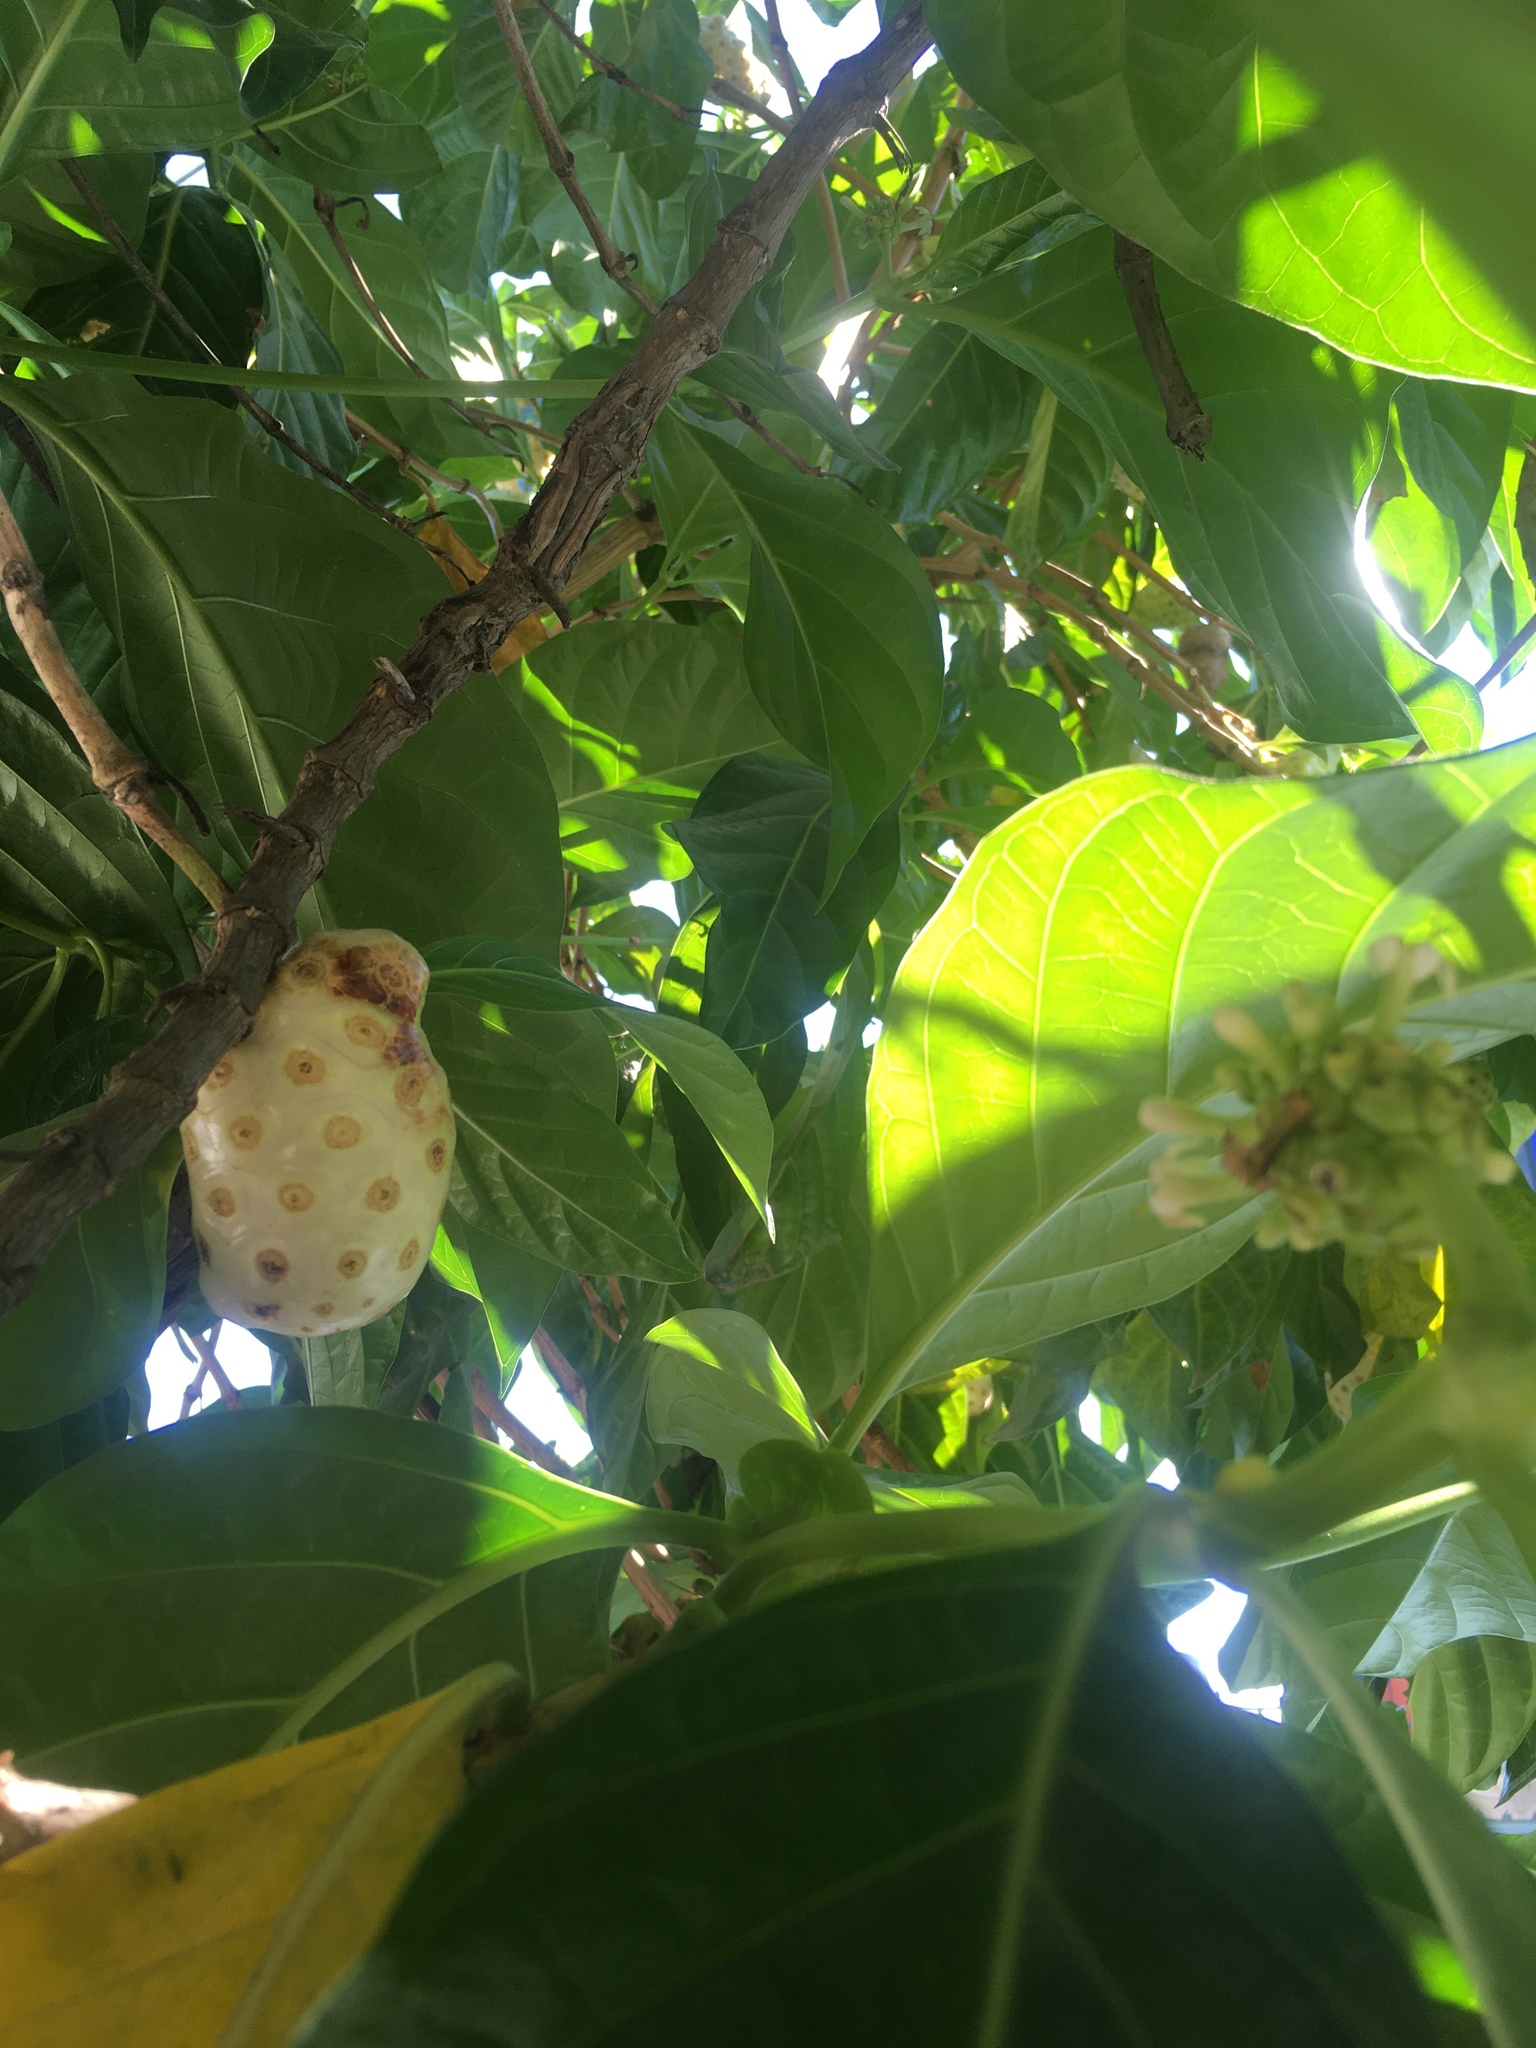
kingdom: Plantae
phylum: Tracheophyta
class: Magnoliopsida
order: Gentianales
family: Rubiaceae
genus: Morinda
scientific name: Morinda citrifolia
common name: Indian-mulberry
